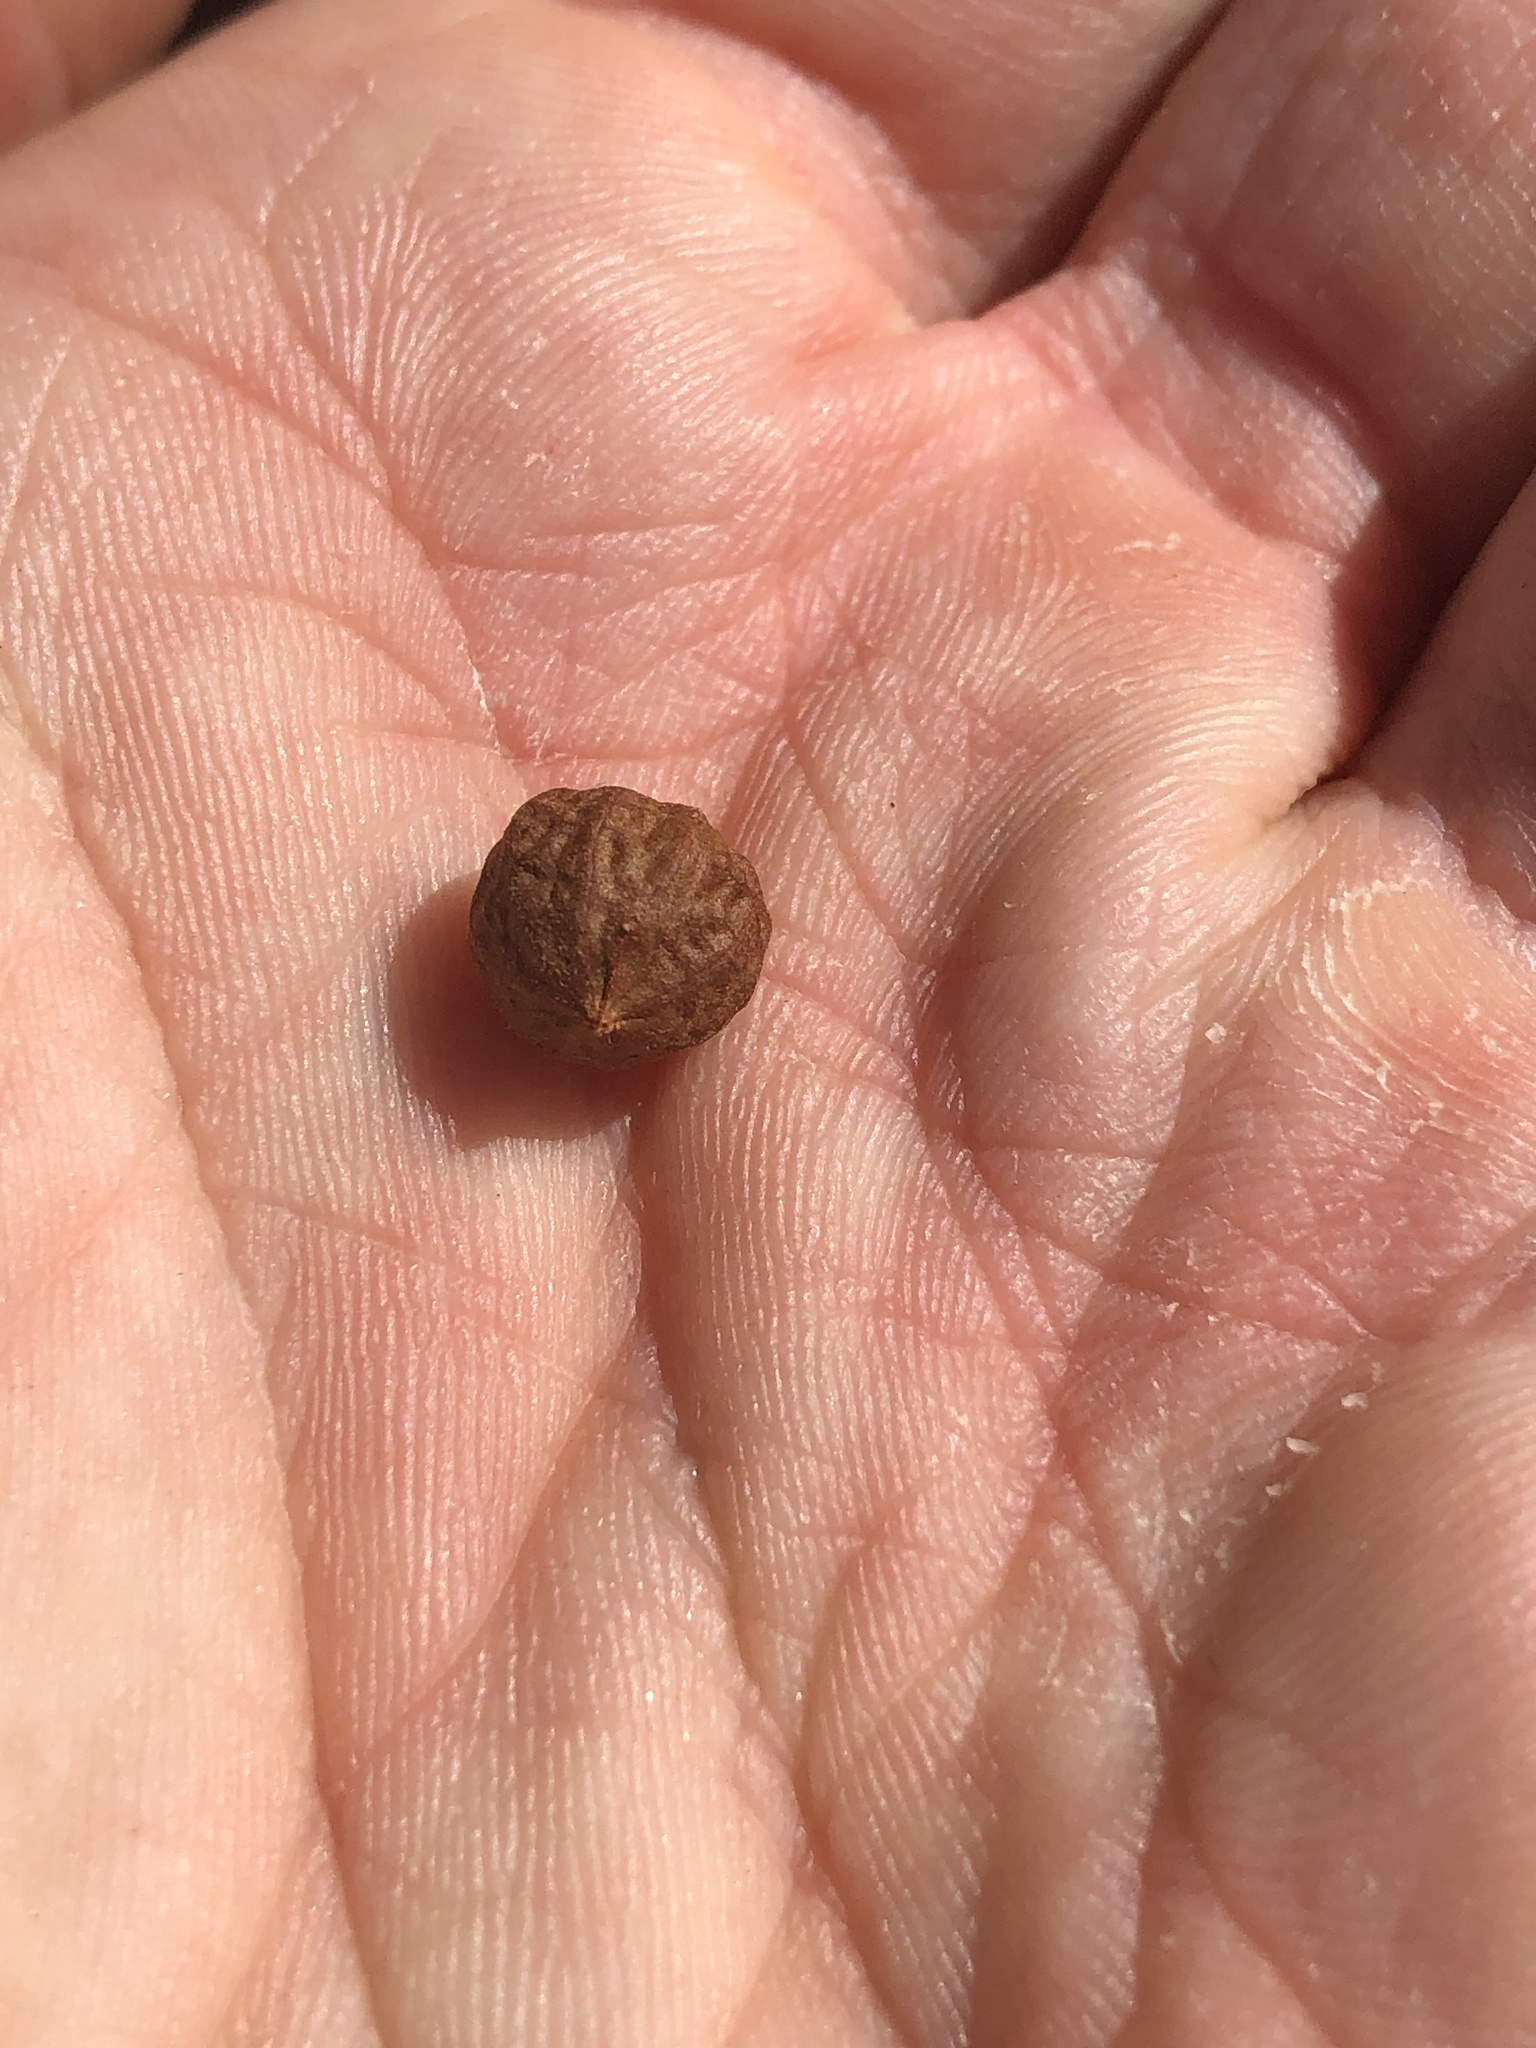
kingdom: Plantae
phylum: Tracheophyta
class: Magnoliopsida
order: Ericales
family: Ericaceae
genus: Arctostaphylos
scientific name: Arctostaphylos refugioensis
